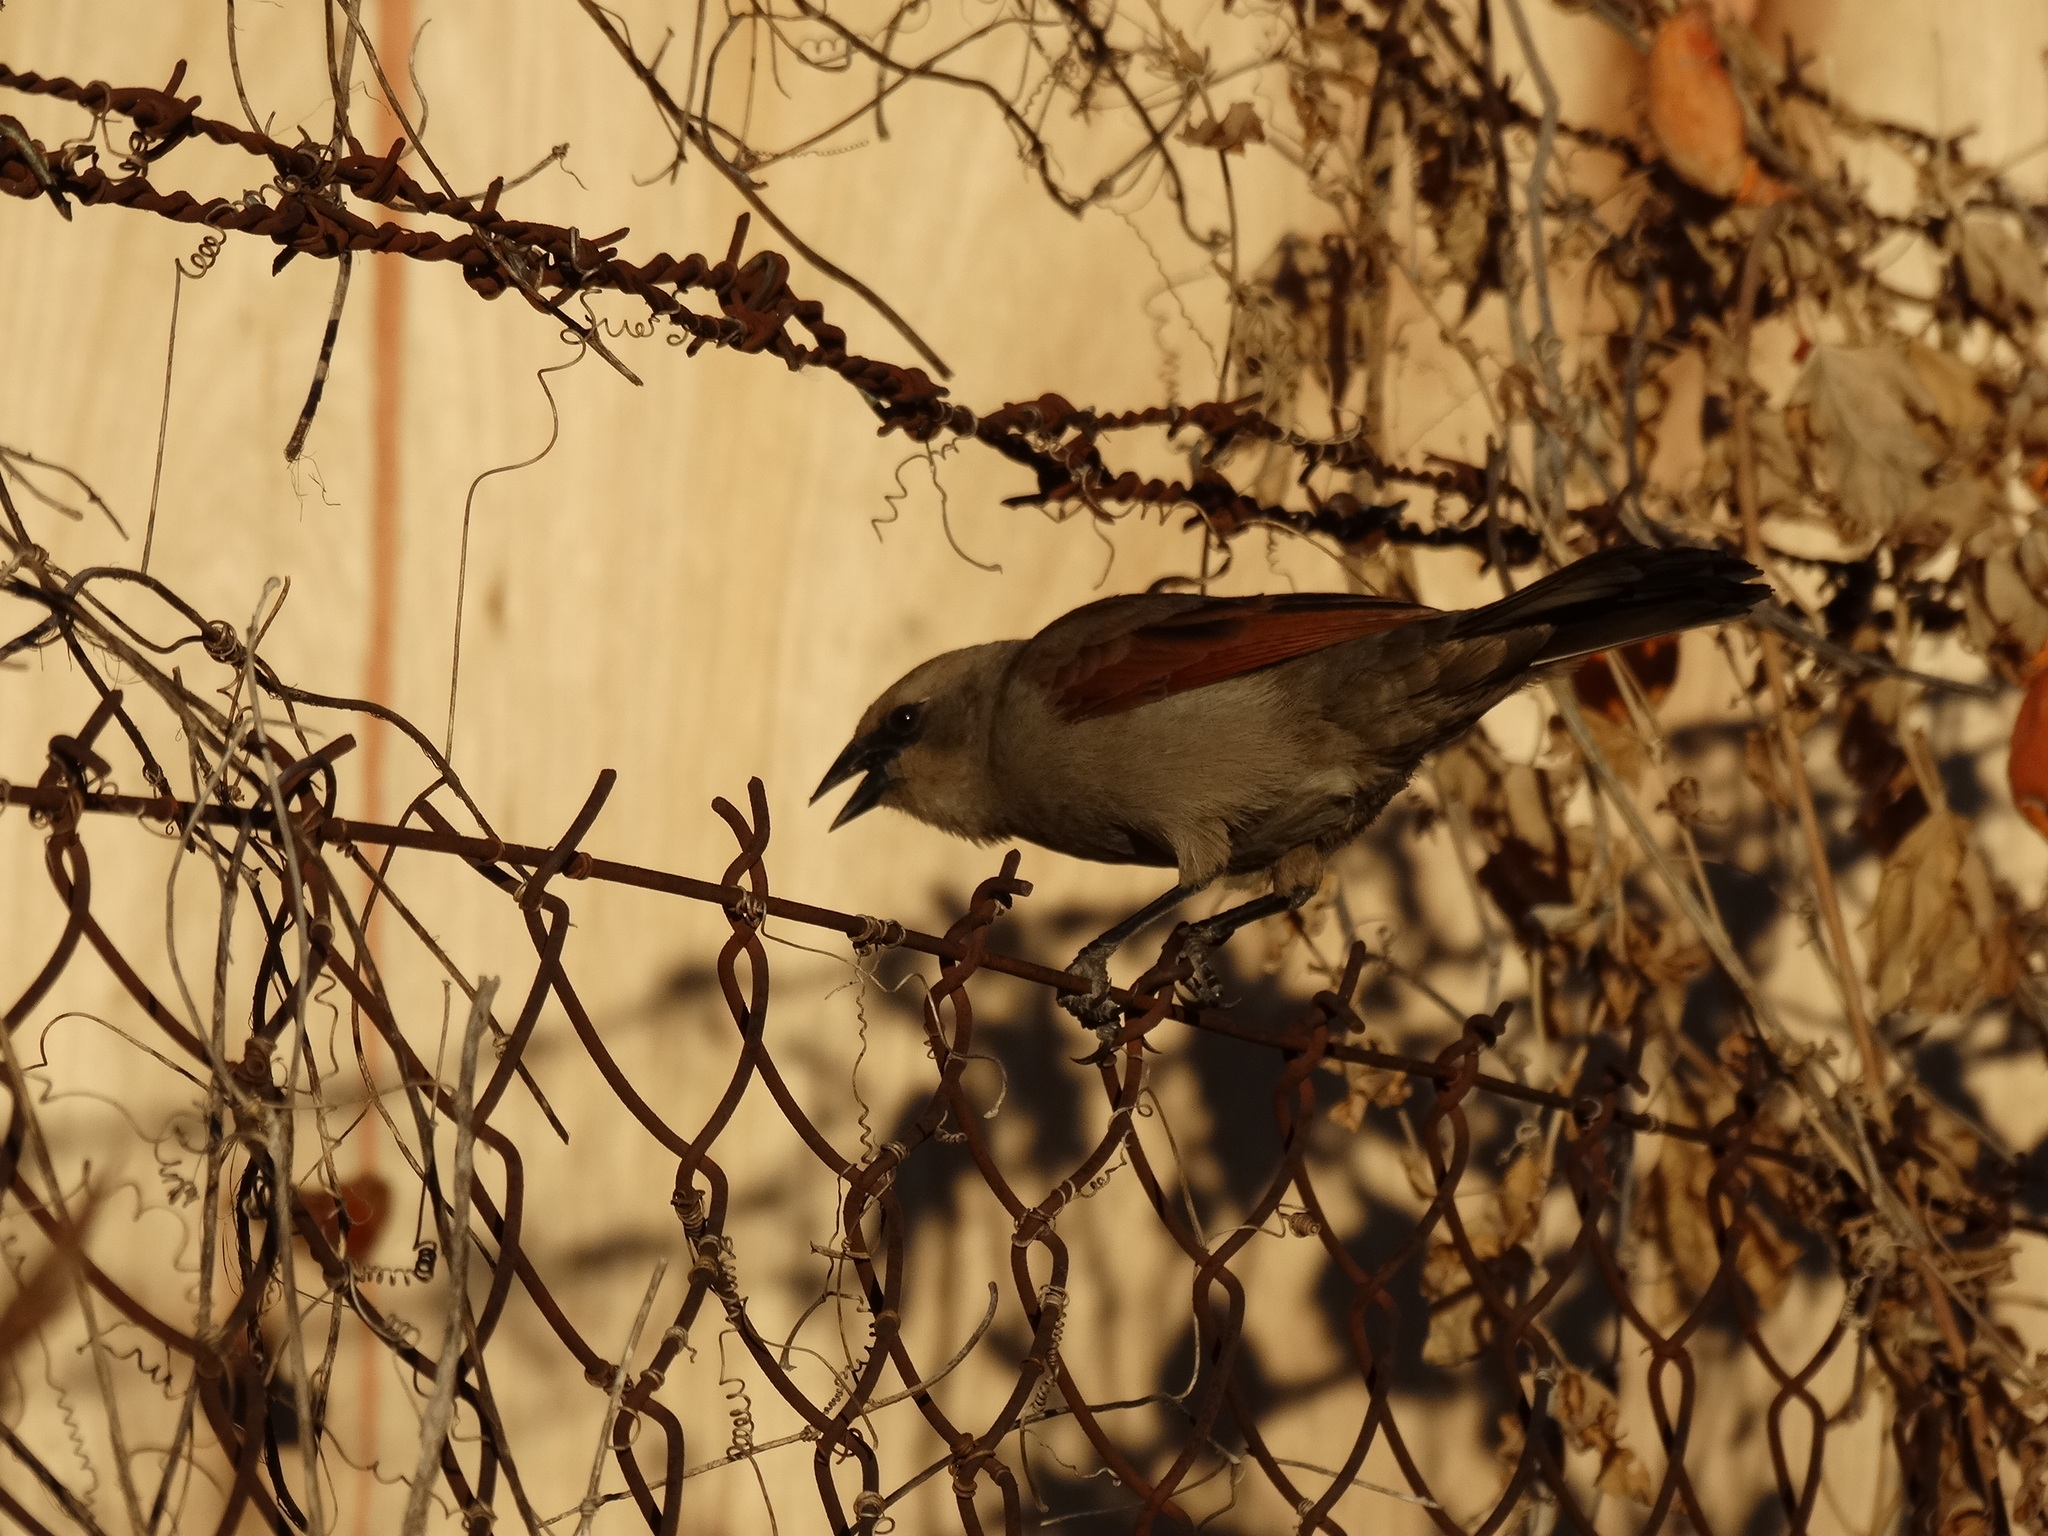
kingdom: Animalia
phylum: Chordata
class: Aves
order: Passeriformes
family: Icteridae
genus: Agelaioides
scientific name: Agelaioides badius
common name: Baywing
